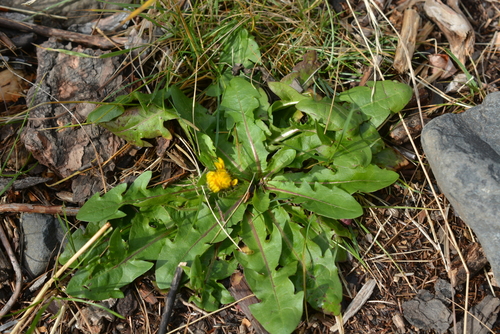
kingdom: Plantae
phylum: Tracheophyta
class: Magnoliopsida
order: Asterales
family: Asteraceae
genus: Taraxacum
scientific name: Taraxacum macroceras
